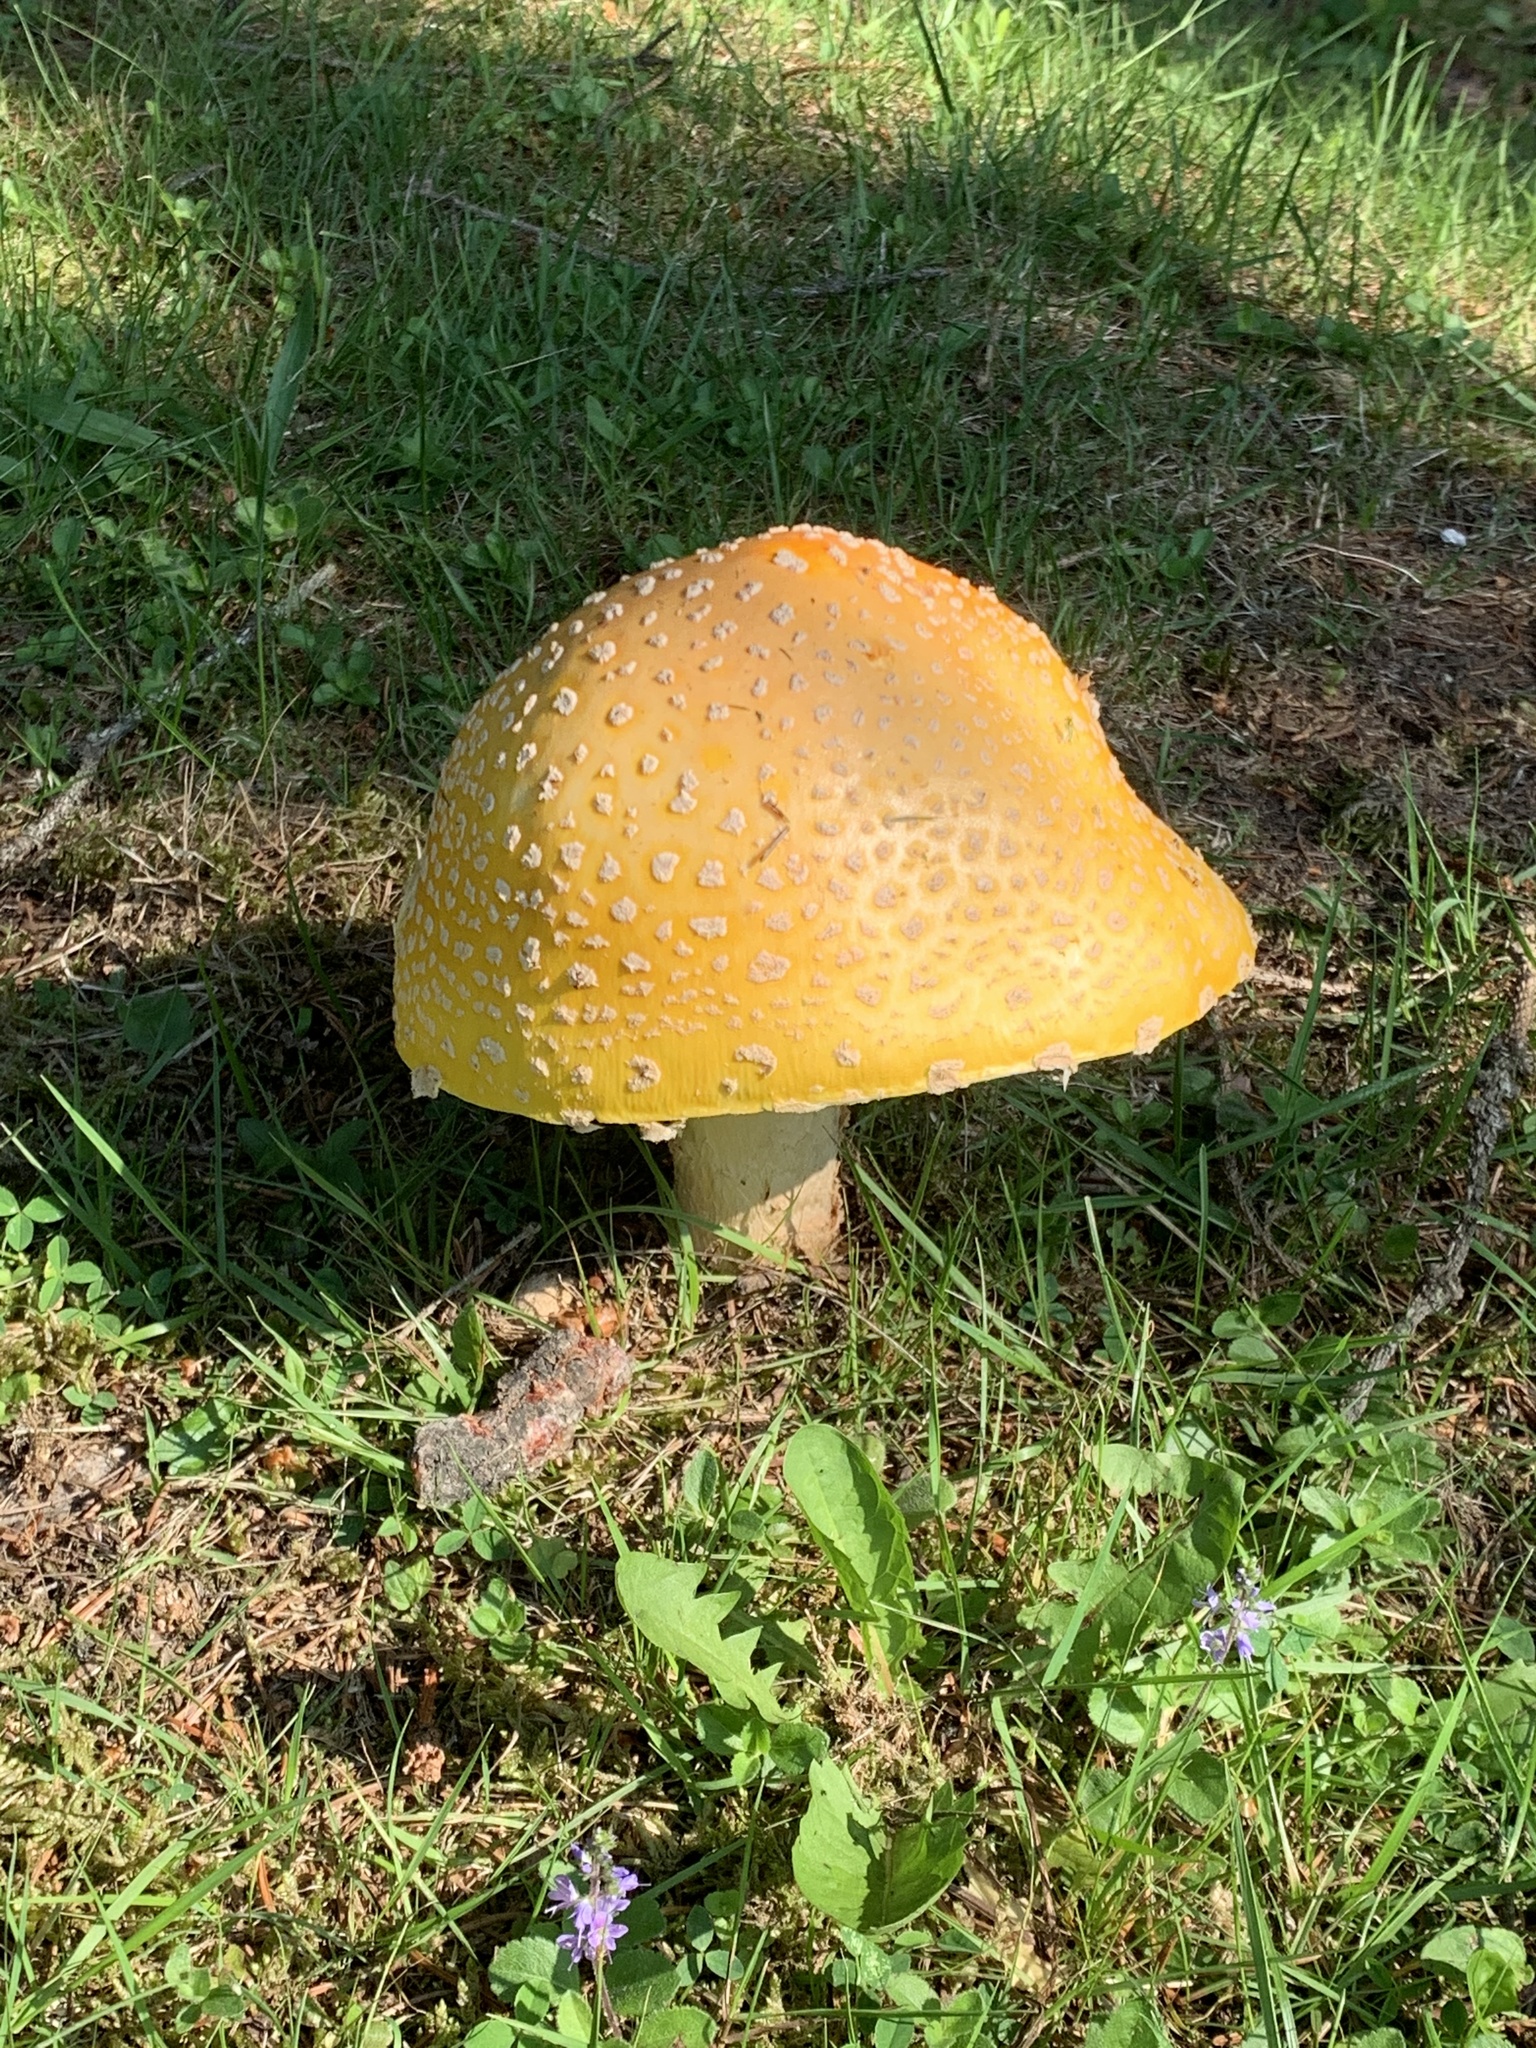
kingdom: Fungi
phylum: Basidiomycota
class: Agaricomycetes
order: Agaricales
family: Amanitaceae
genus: Amanita
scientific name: Amanita muscaria
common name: Fly agaric
